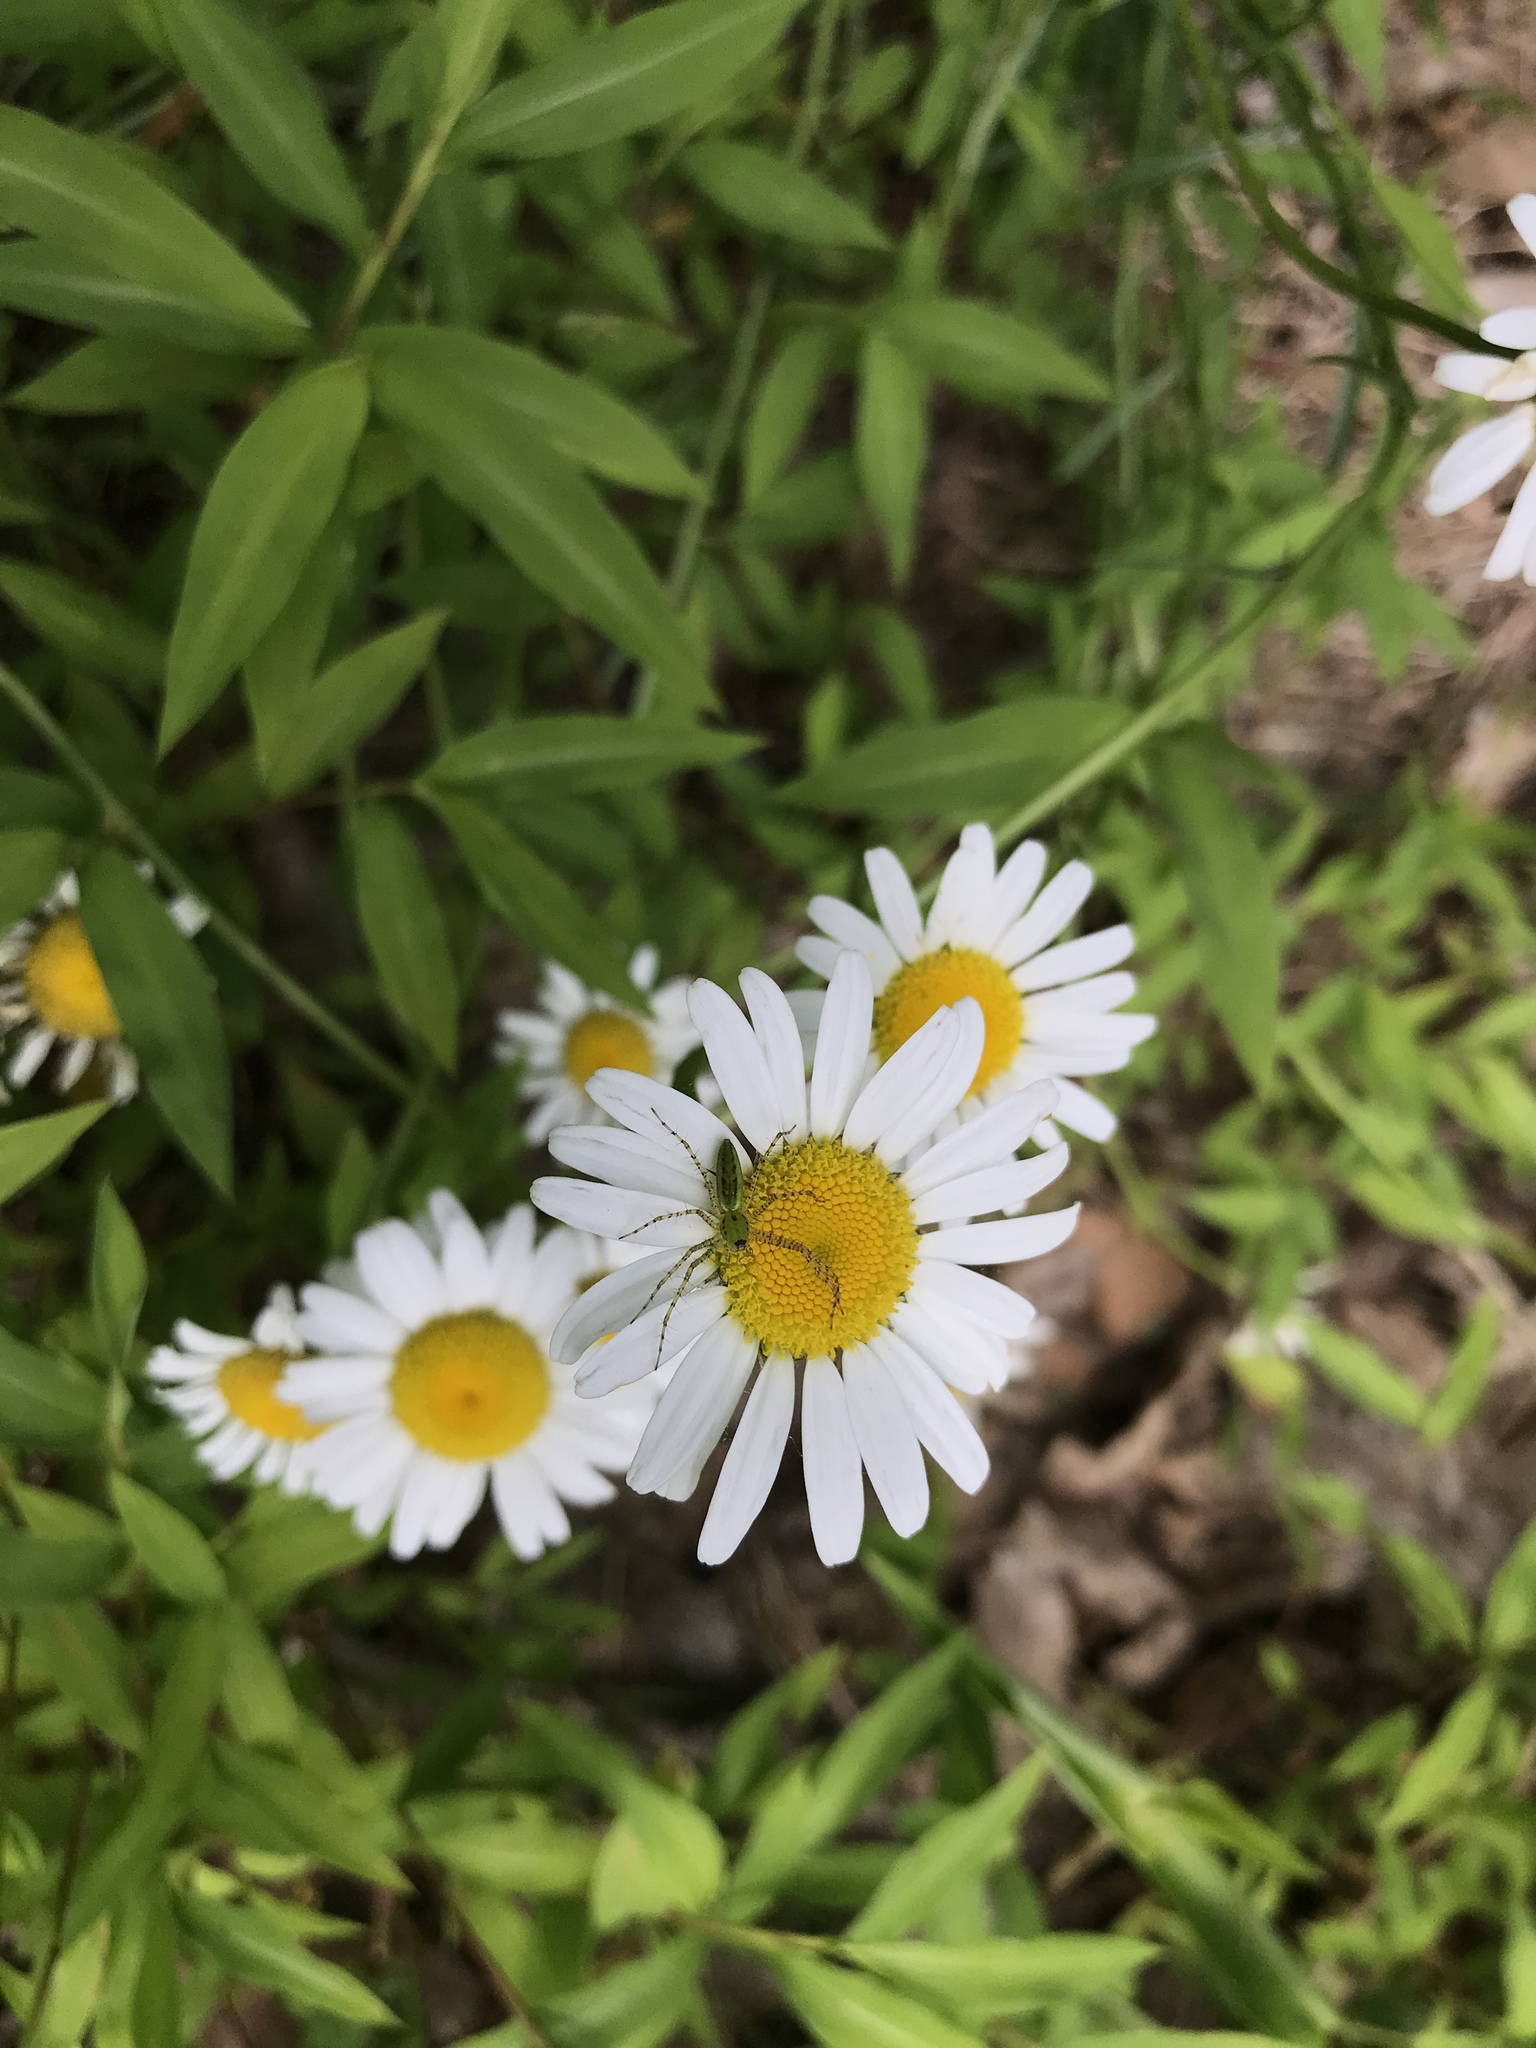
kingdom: Animalia
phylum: Arthropoda
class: Arachnida
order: Araneae
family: Oxyopidae
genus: Peucetia
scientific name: Peucetia viridans
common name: Lynx spiders
